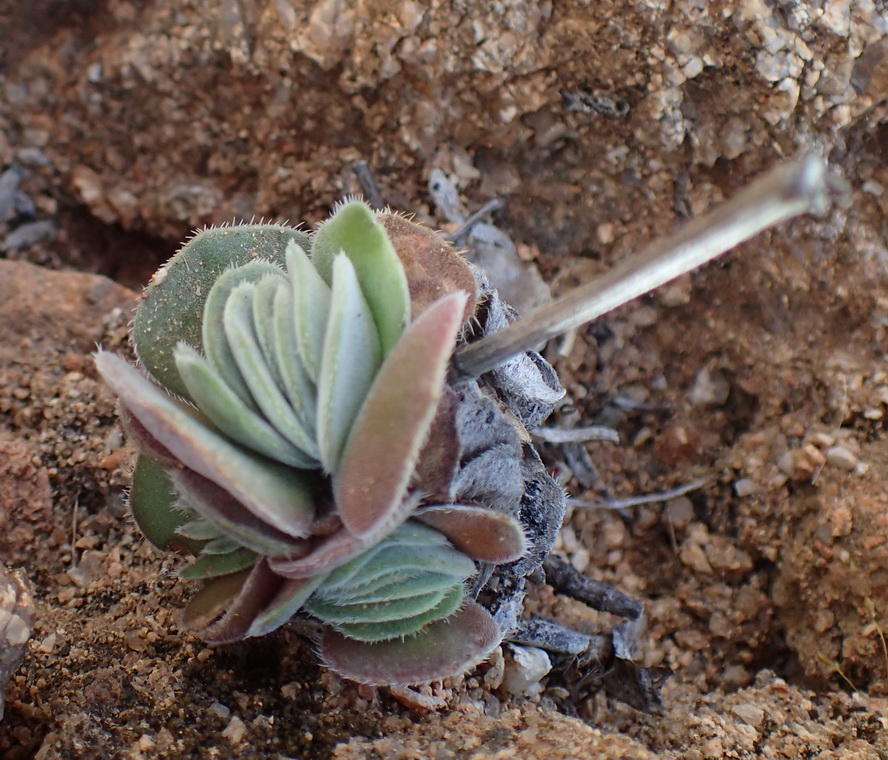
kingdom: Plantae
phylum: Tracheophyta
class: Magnoliopsida
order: Saxifragales
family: Crassulaceae
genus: Crassula
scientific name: Crassula tomentosa
